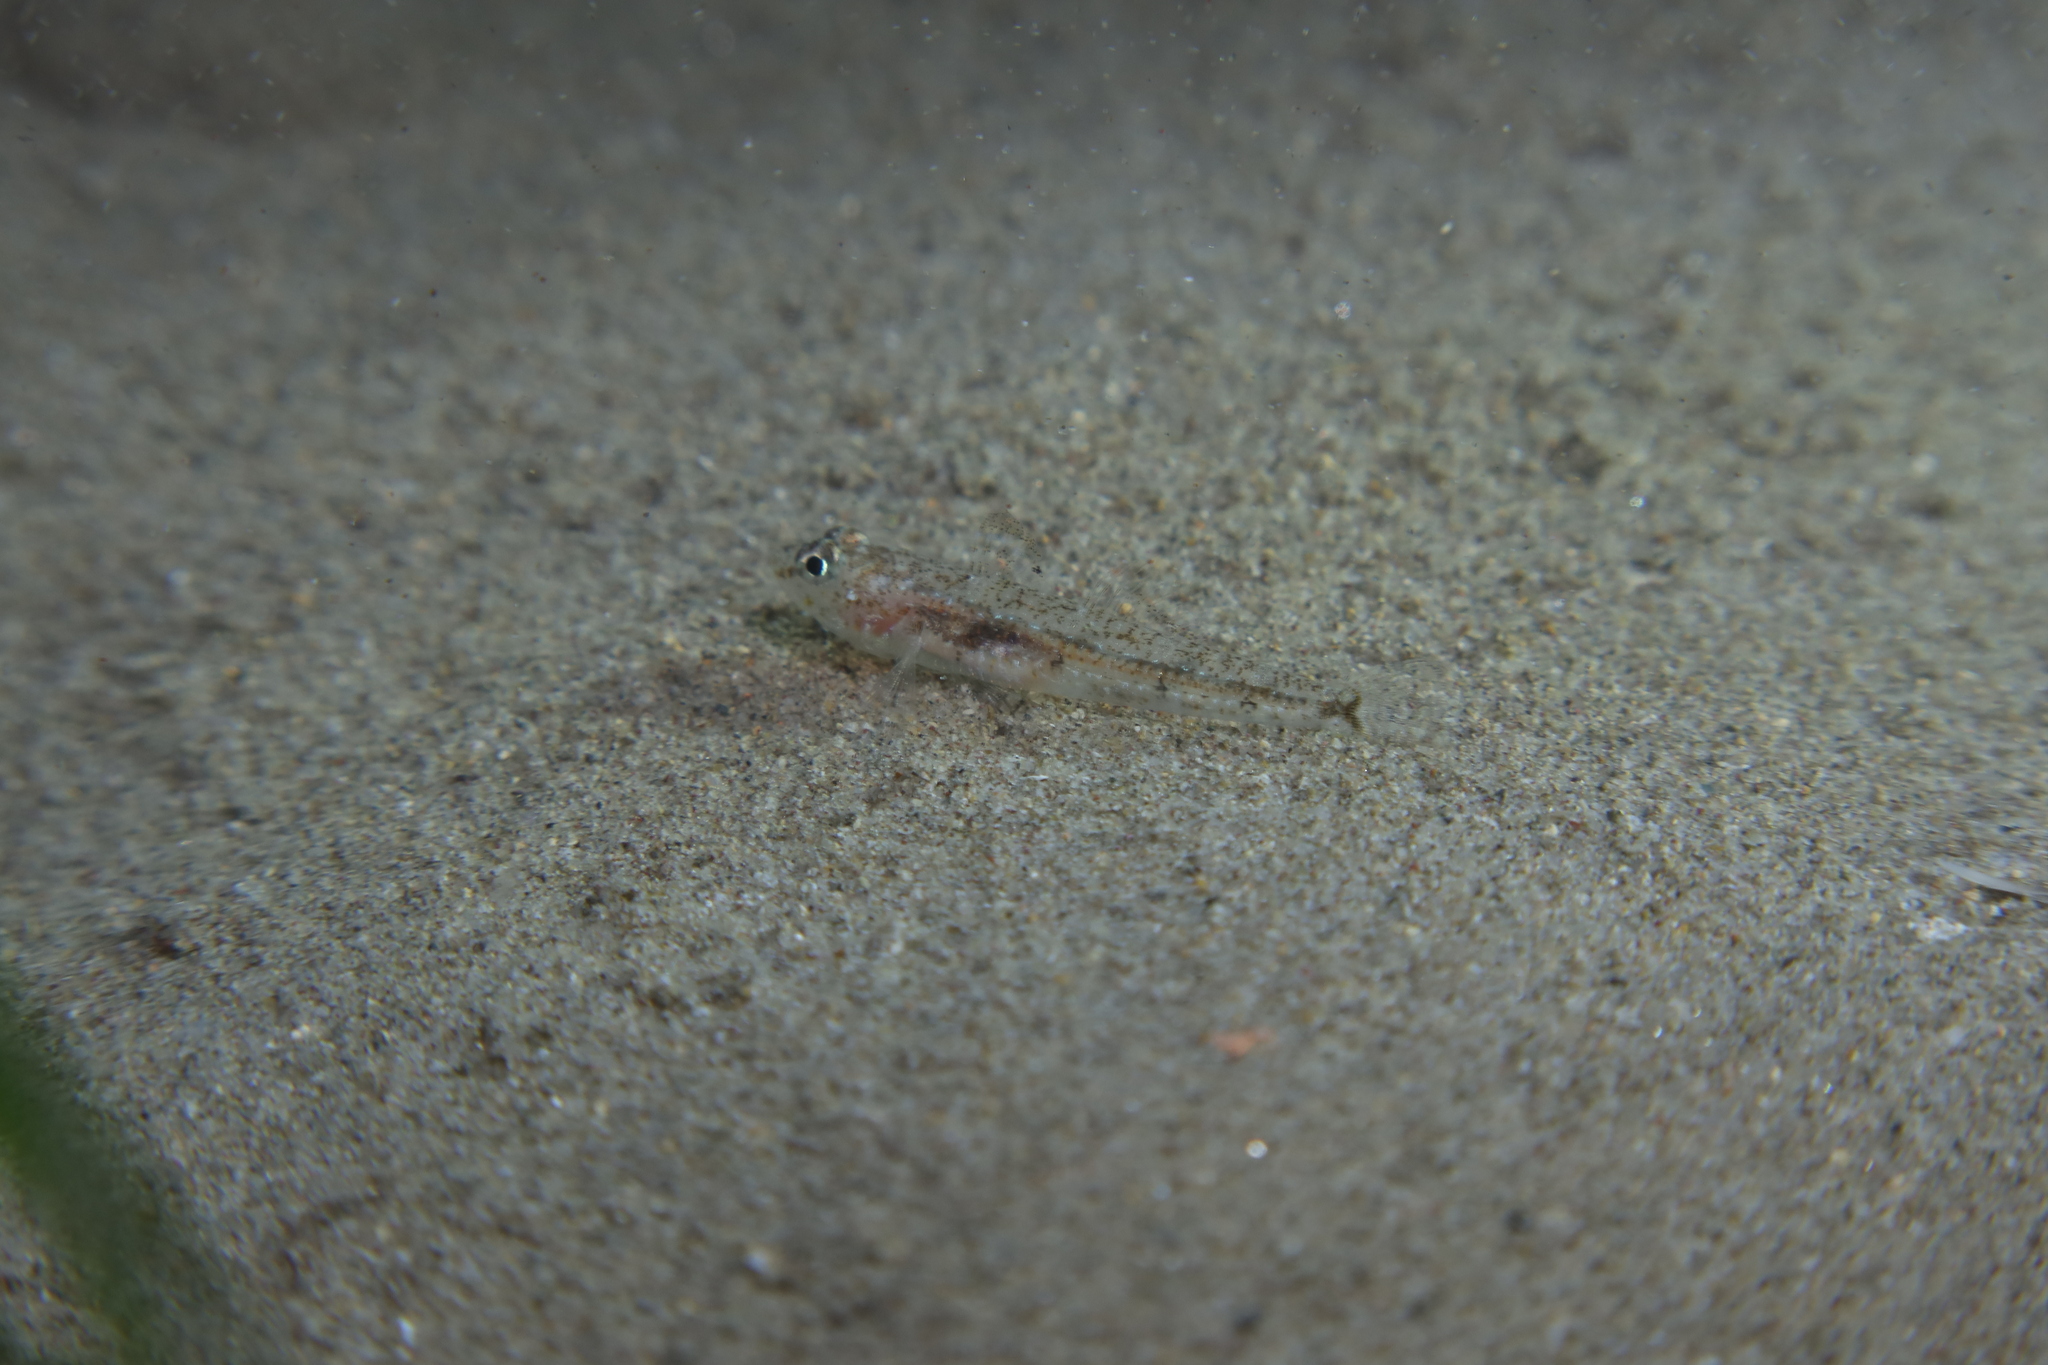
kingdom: Animalia
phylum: Chordata
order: Perciformes
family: Gobiidae
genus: Deltentosteus
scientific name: Deltentosteus quadrimaculatus
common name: Four-spotted goby
